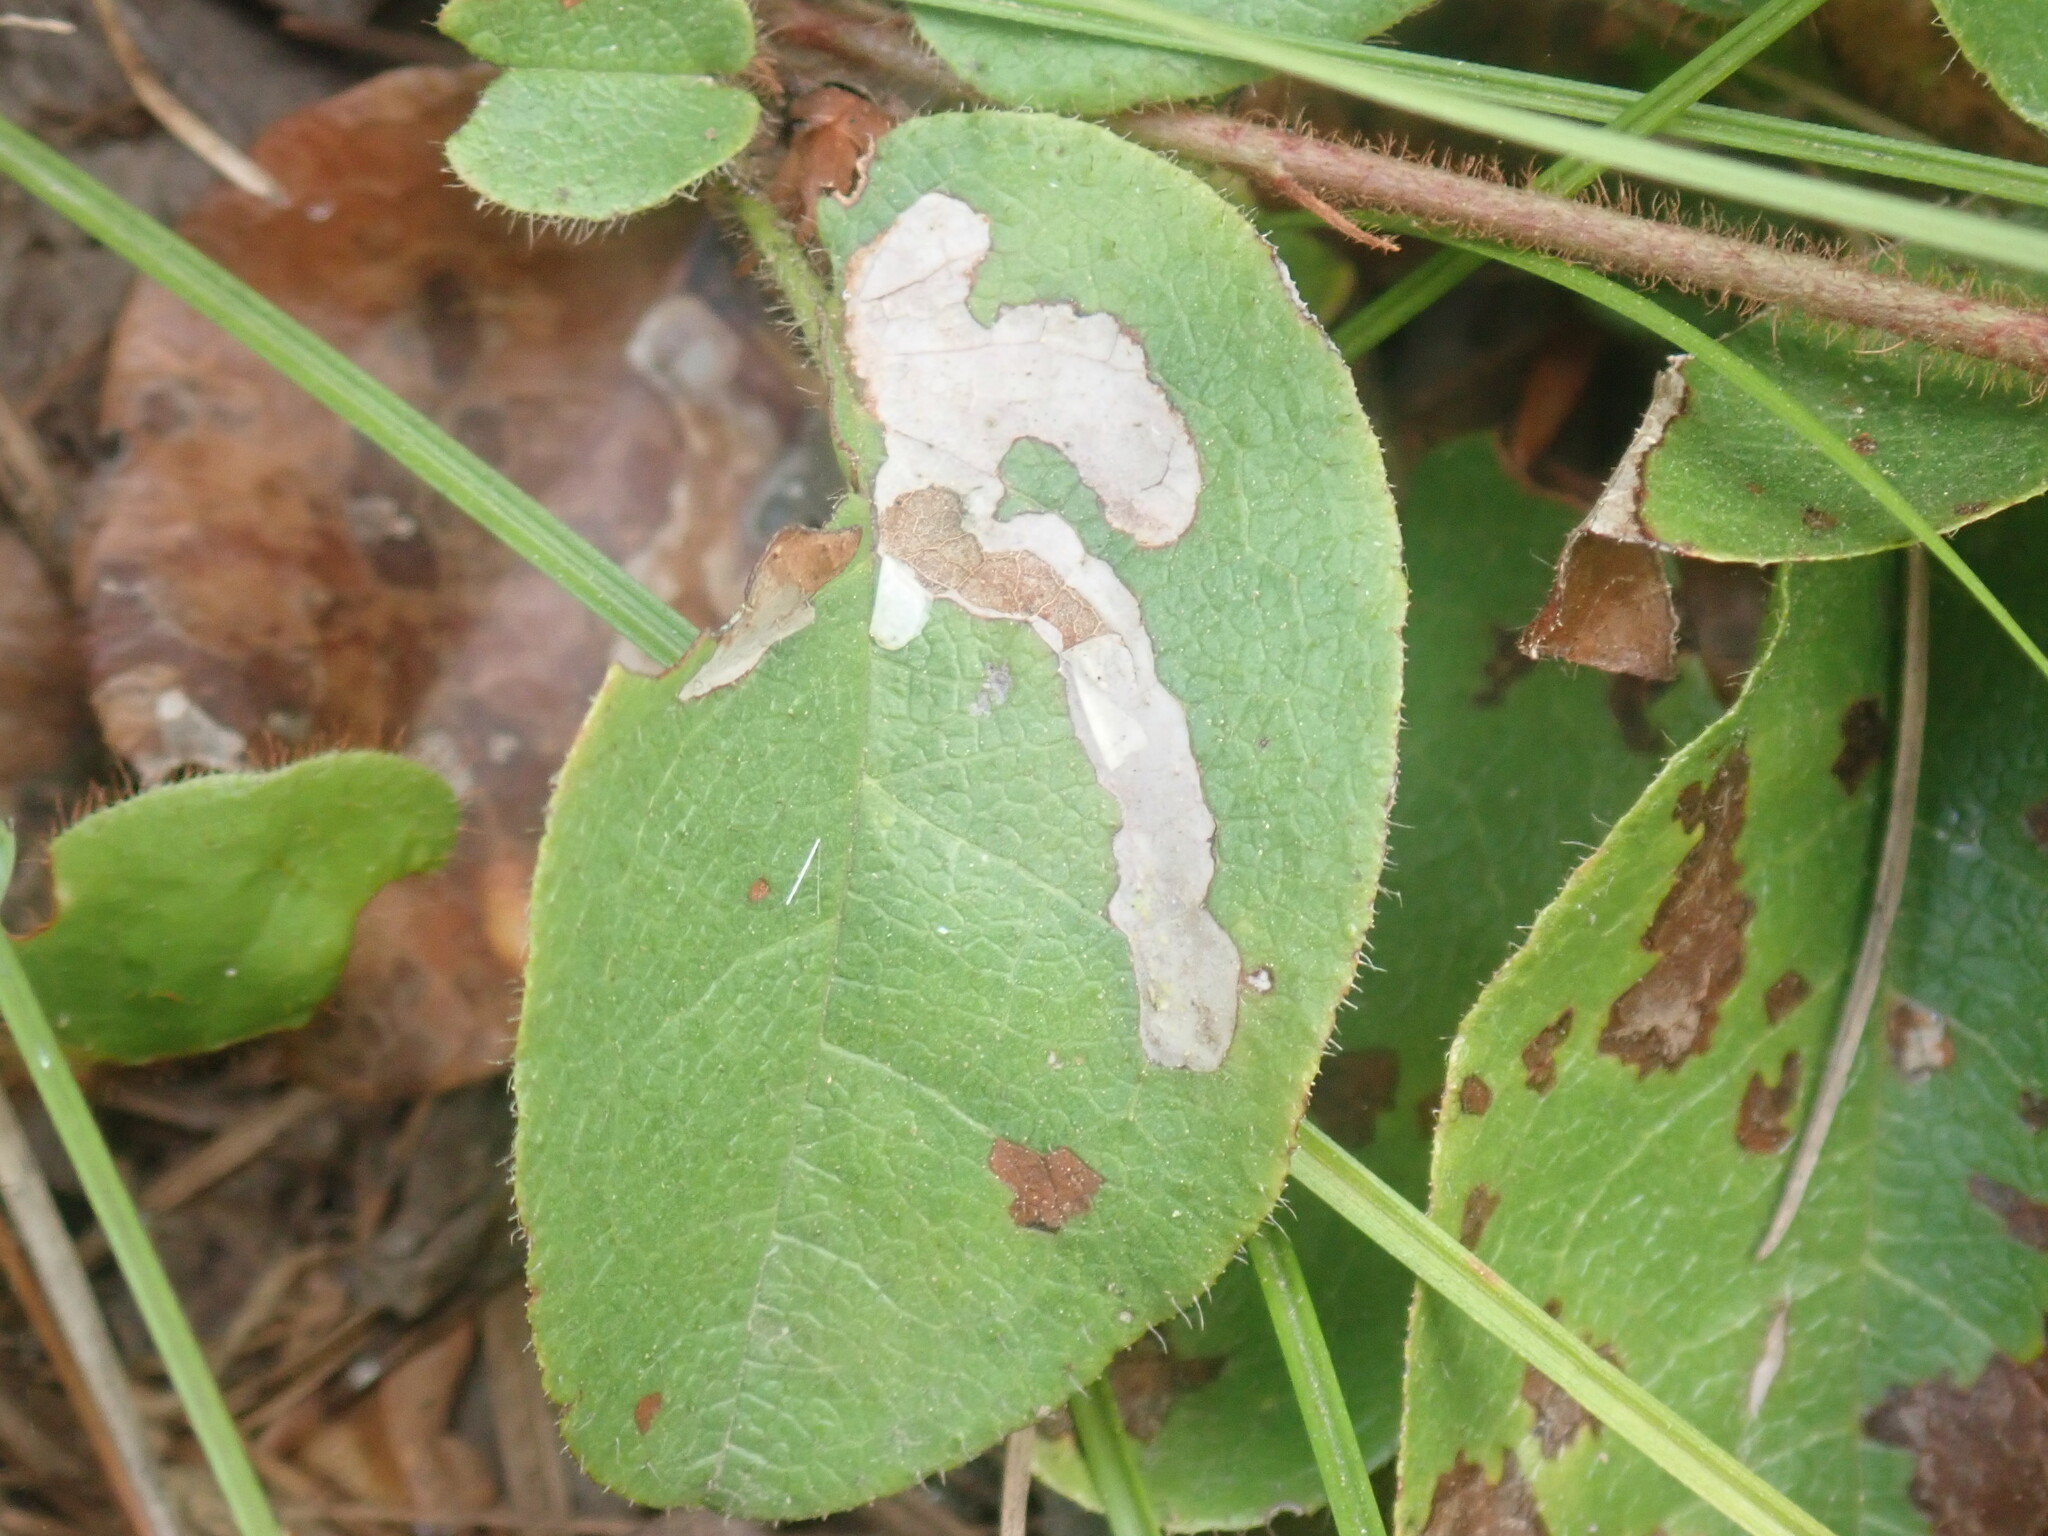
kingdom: Animalia
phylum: Arthropoda
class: Insecta
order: Coleoptera
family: Buprestidae
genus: Brachys
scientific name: Brachys
